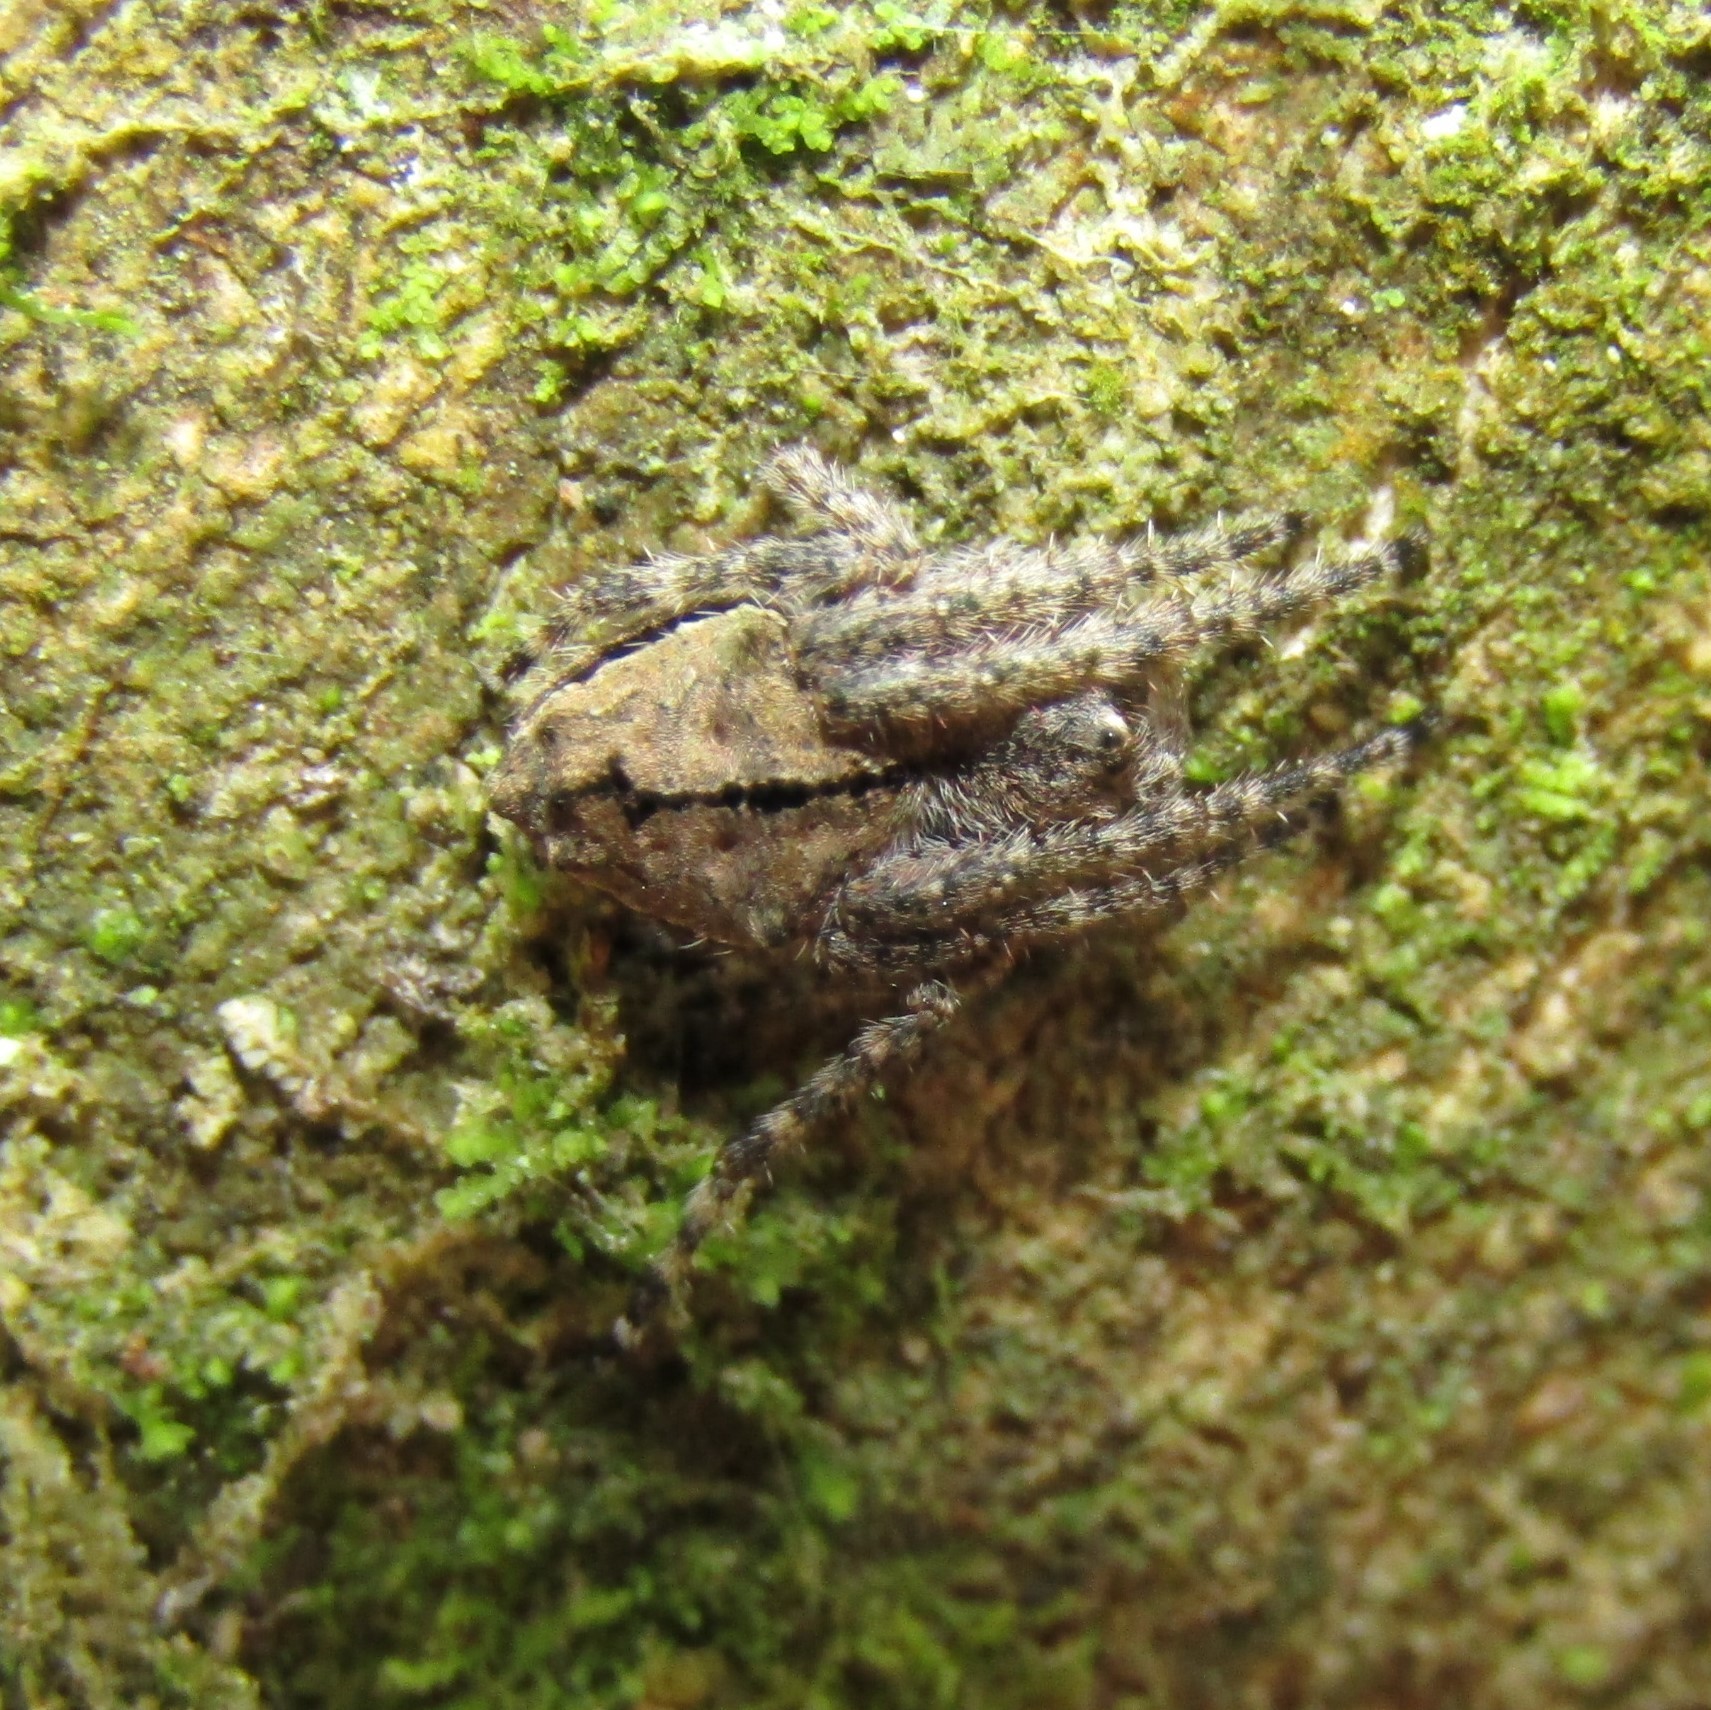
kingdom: Animalia
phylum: Arthropoda
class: Arachnida
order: Araneae
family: Araneidae
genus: Eriophora
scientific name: Eriophora pustulosa
